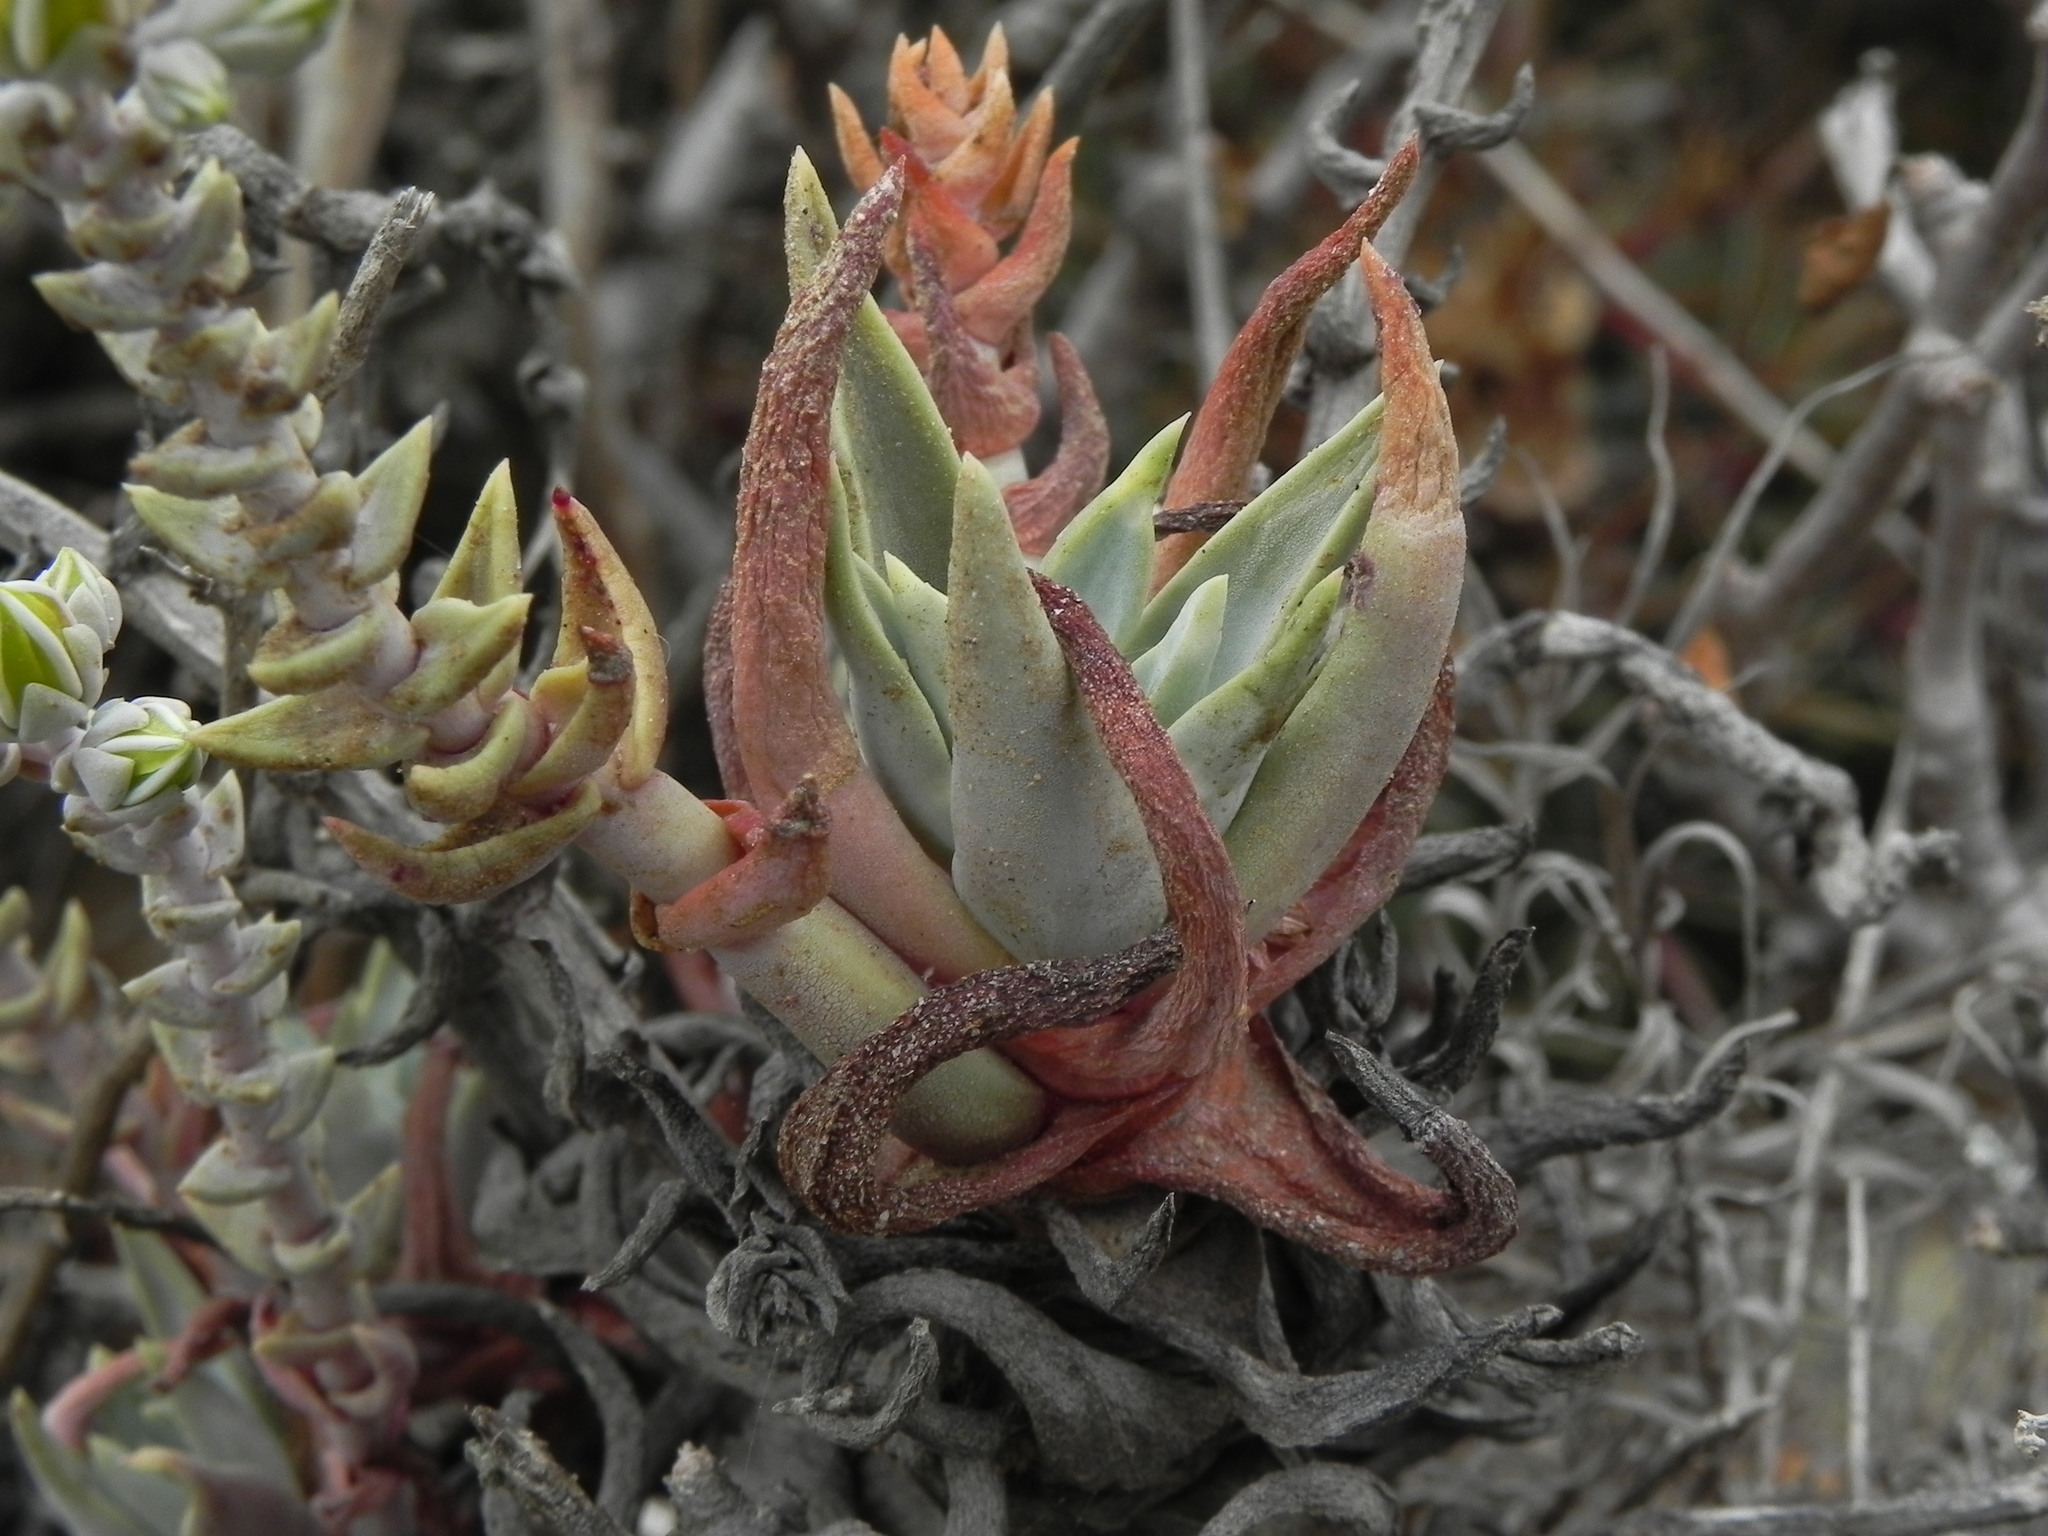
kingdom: Plantae
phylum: Tracheophyta
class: Magnoliopsida
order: Saxifragales
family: Crassulaceae
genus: Dudleya
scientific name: Dudleya caespitosa
